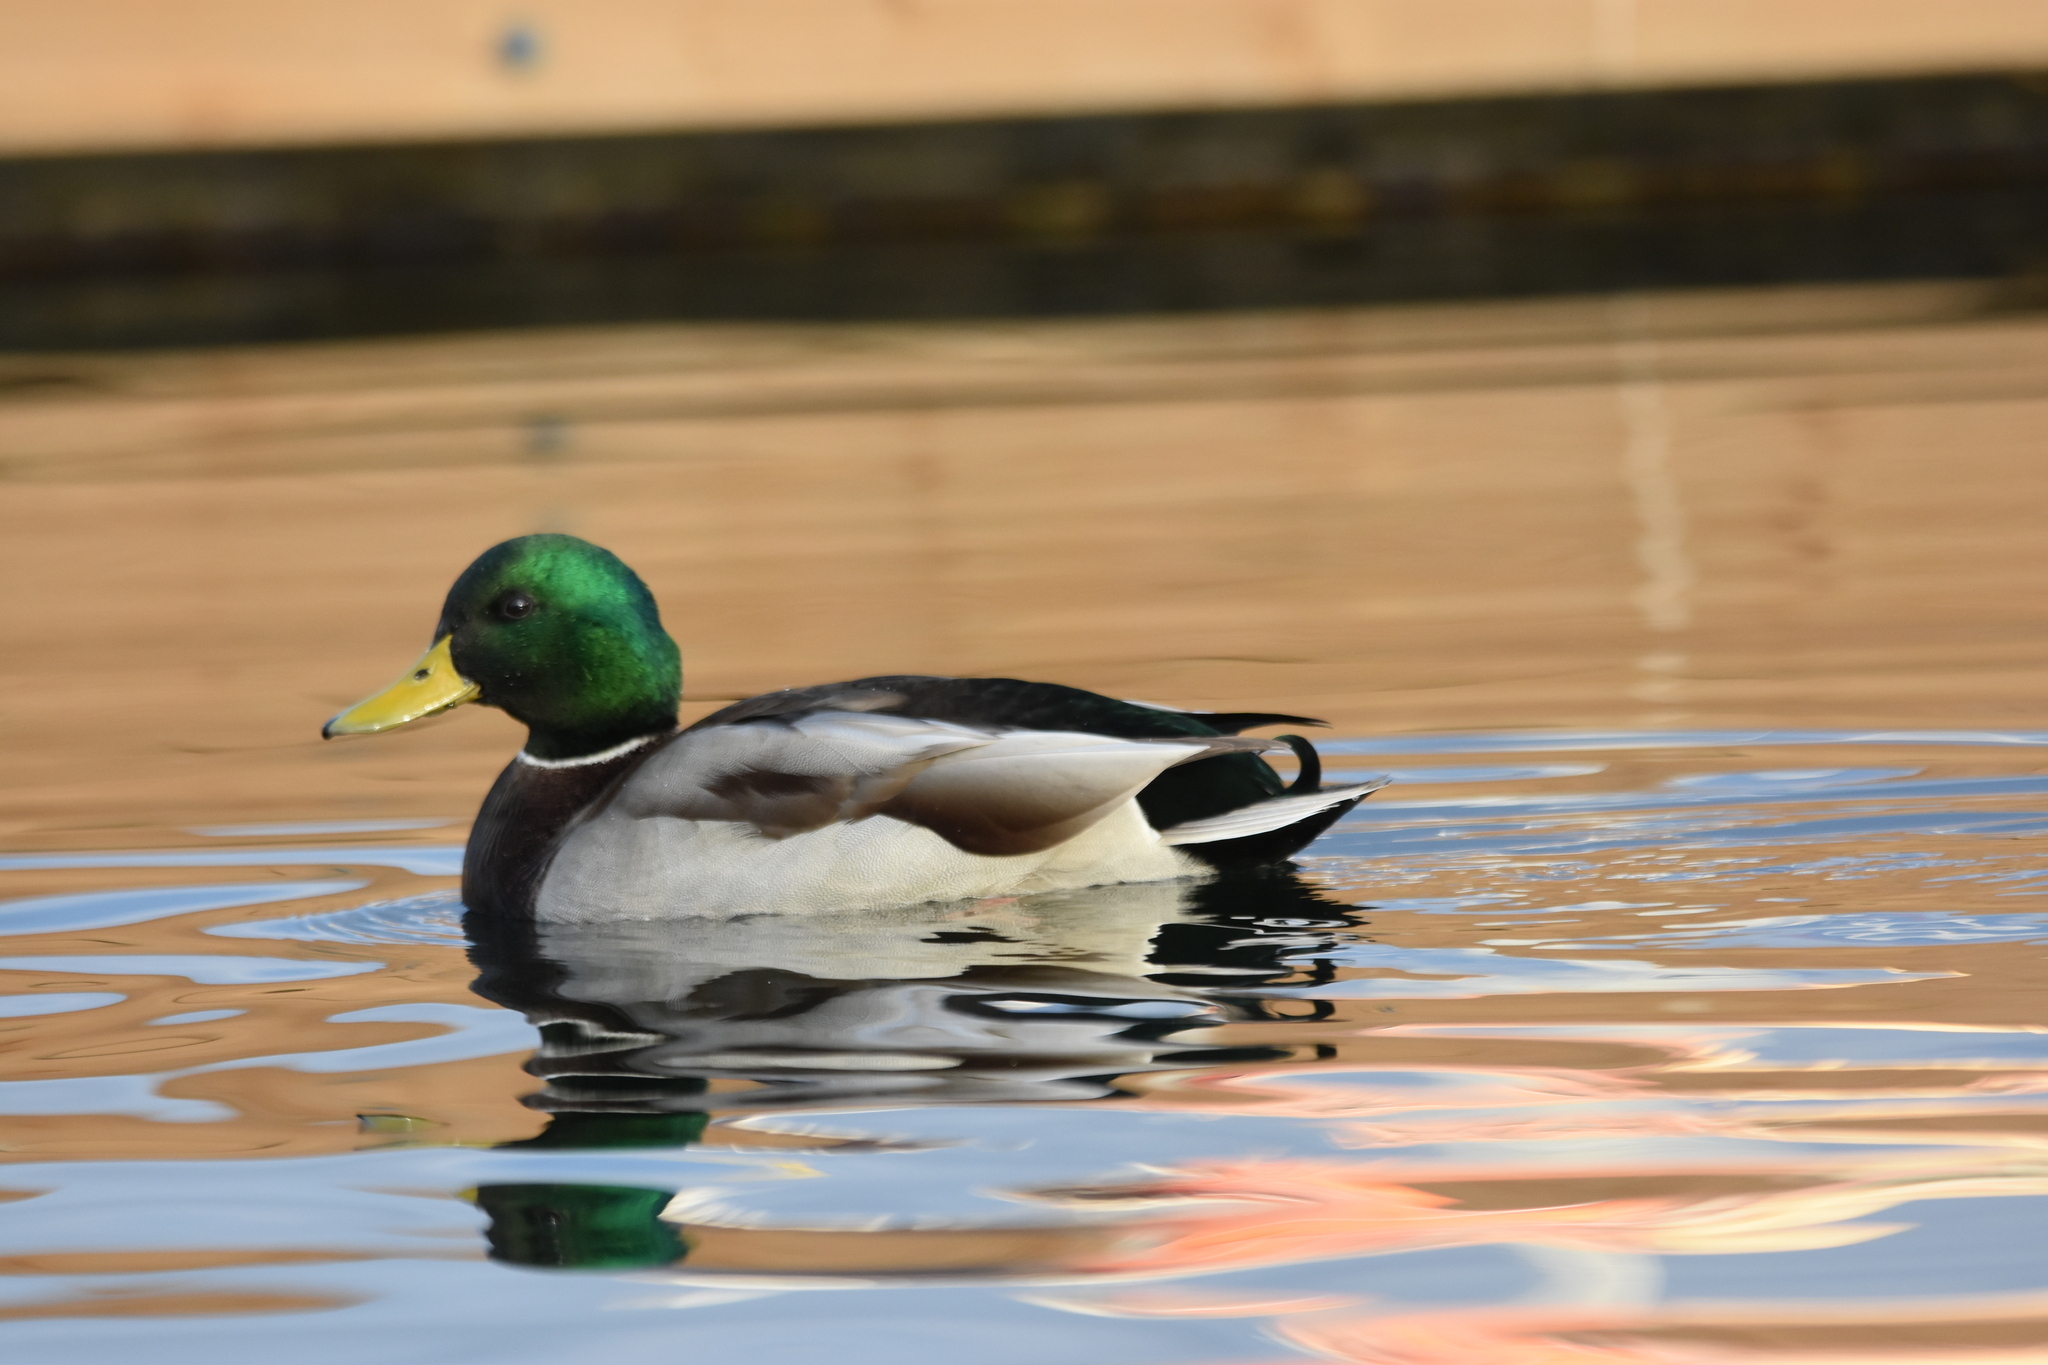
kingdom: Animalia
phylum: Chordata
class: Aves
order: Anseriformes
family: Anatidae
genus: Anas
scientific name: Anas platyrhynchos
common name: Mallard
